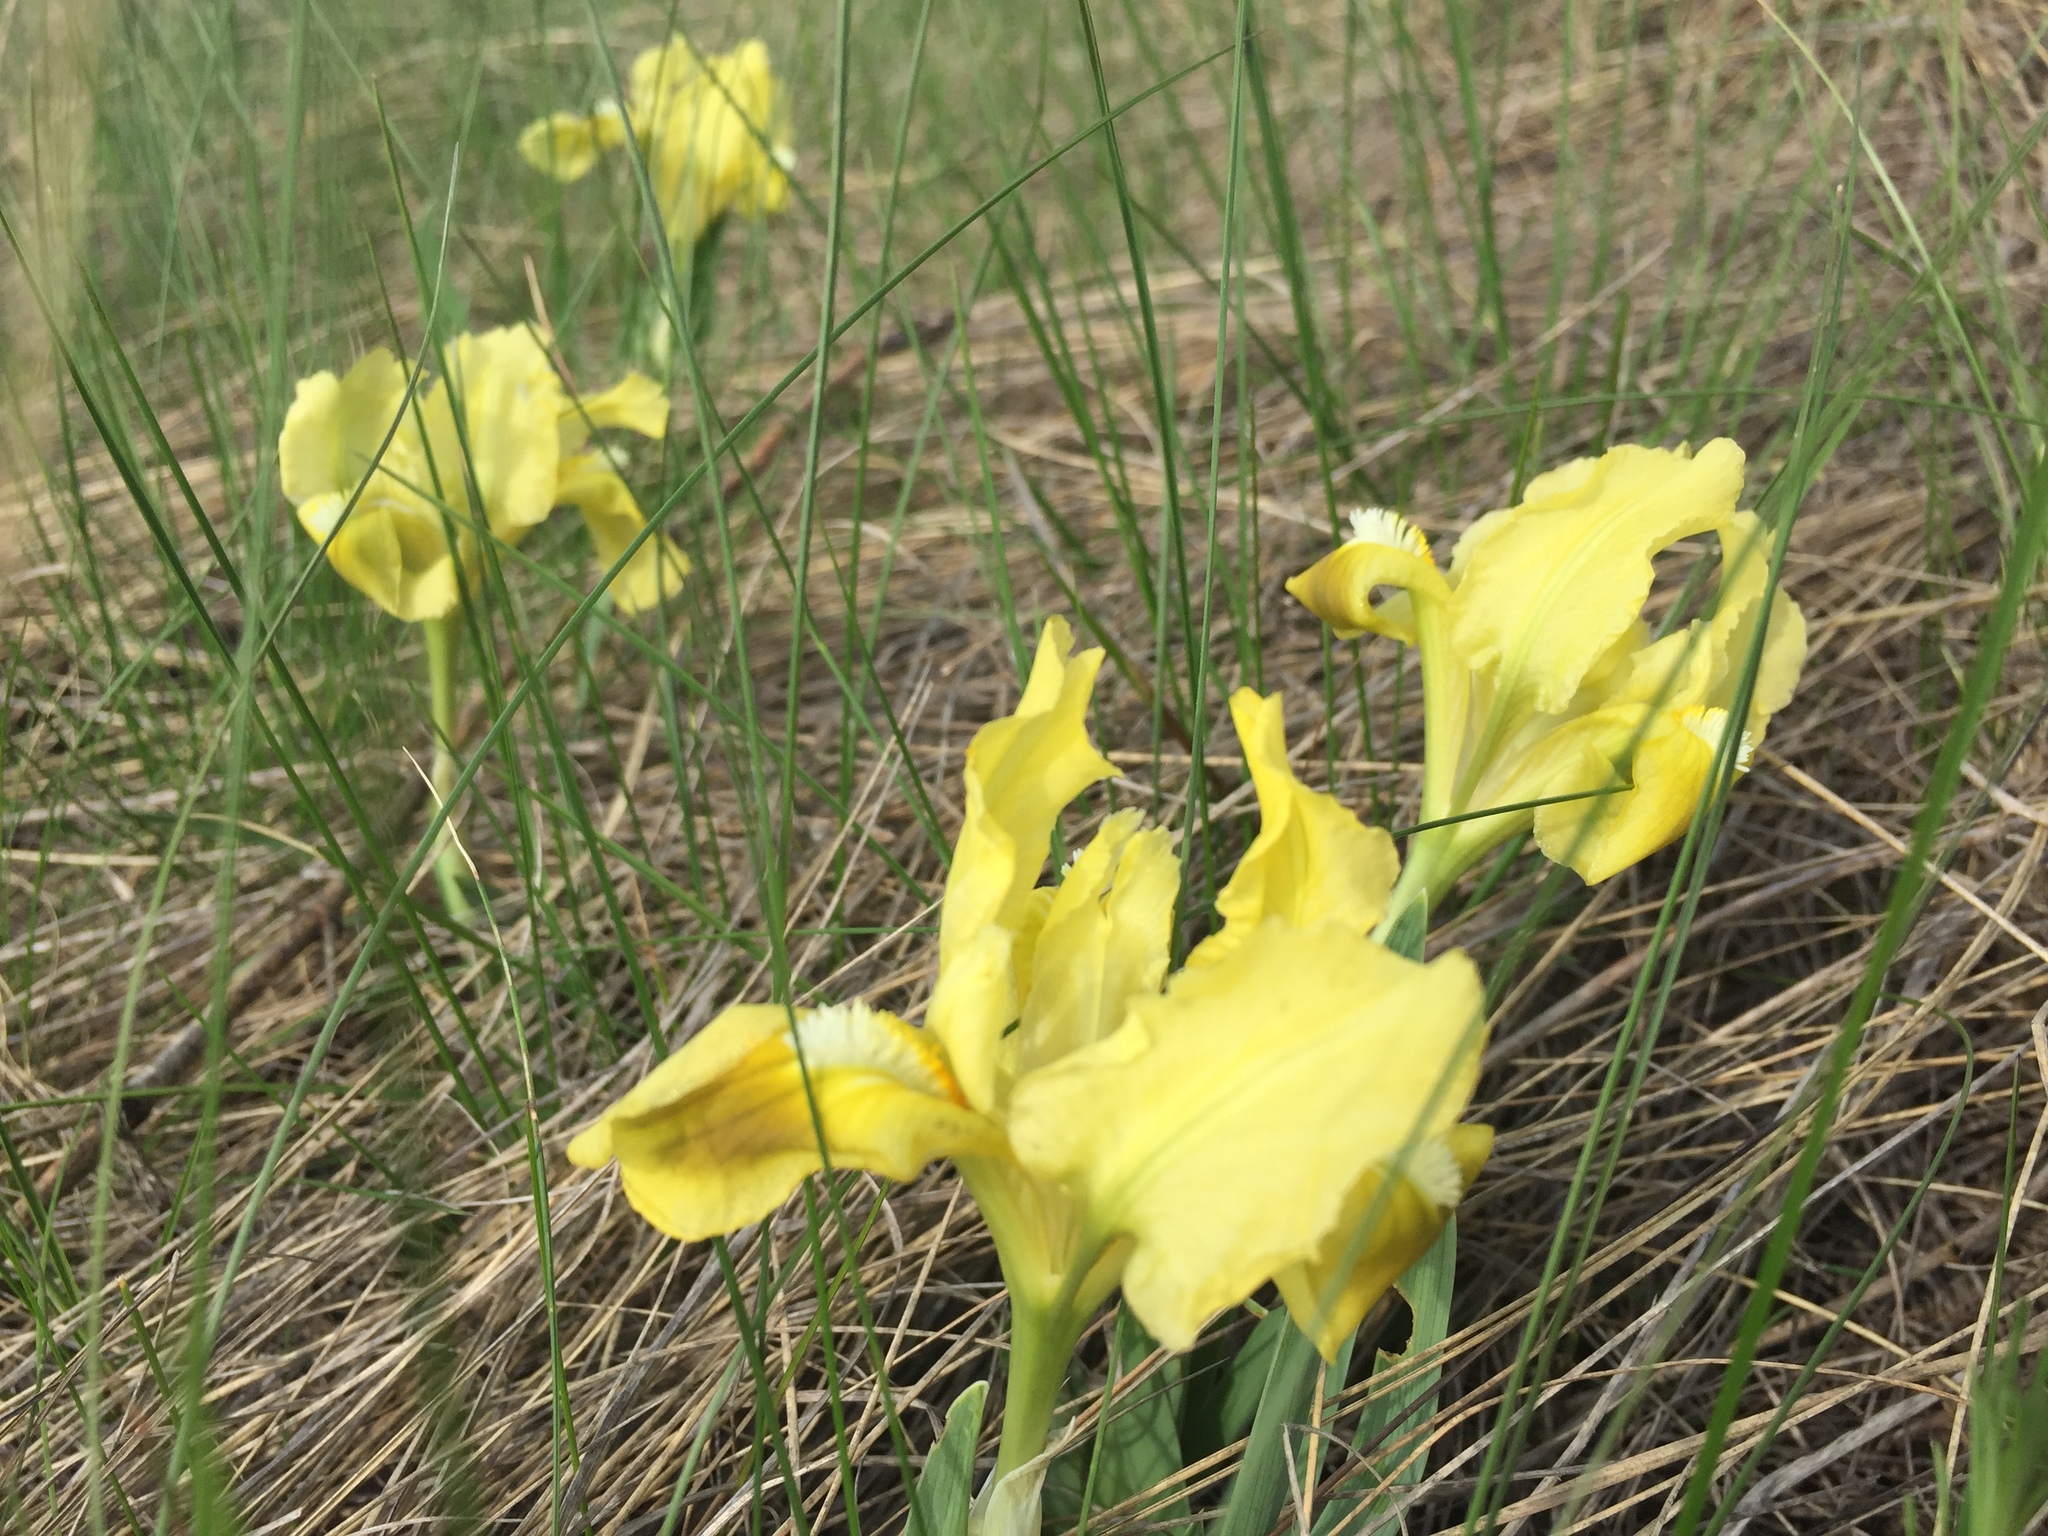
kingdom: Plantae
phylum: Tracheophyta
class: Liliopsida
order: Asparagales
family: Iridaceae
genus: Iris
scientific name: Iris pumila
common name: Dwarf iris
